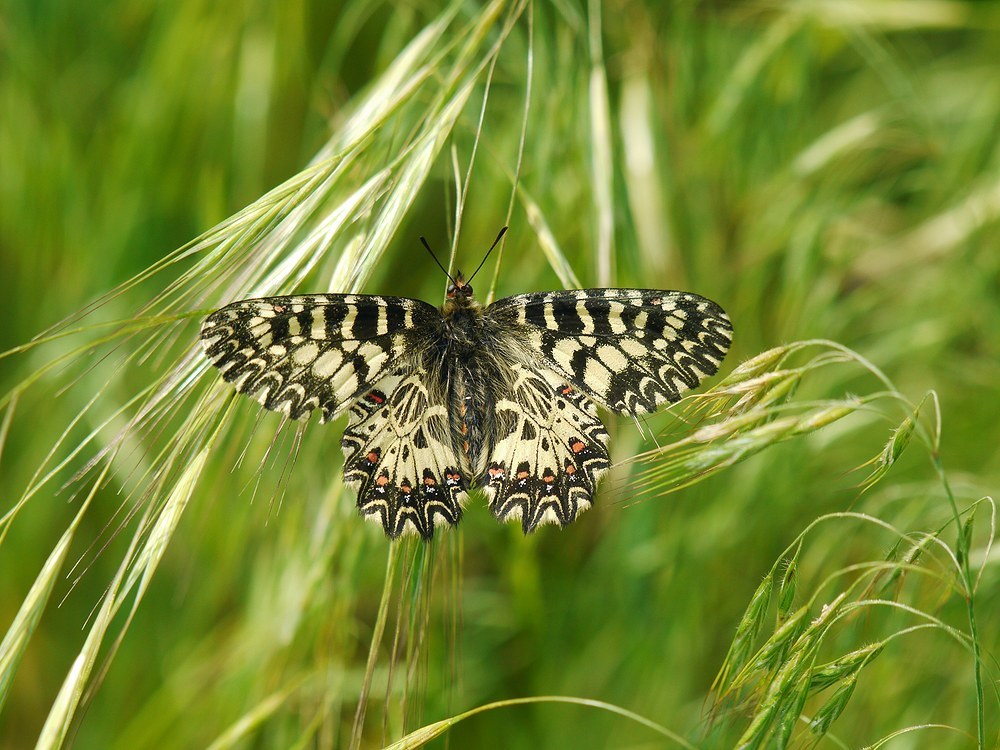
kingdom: Animalia
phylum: Arthropoda
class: Insecta
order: Lepidoptera
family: Papilionidae
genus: Zerynthia
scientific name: Zerynthia polyxena
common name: Southern festoon
